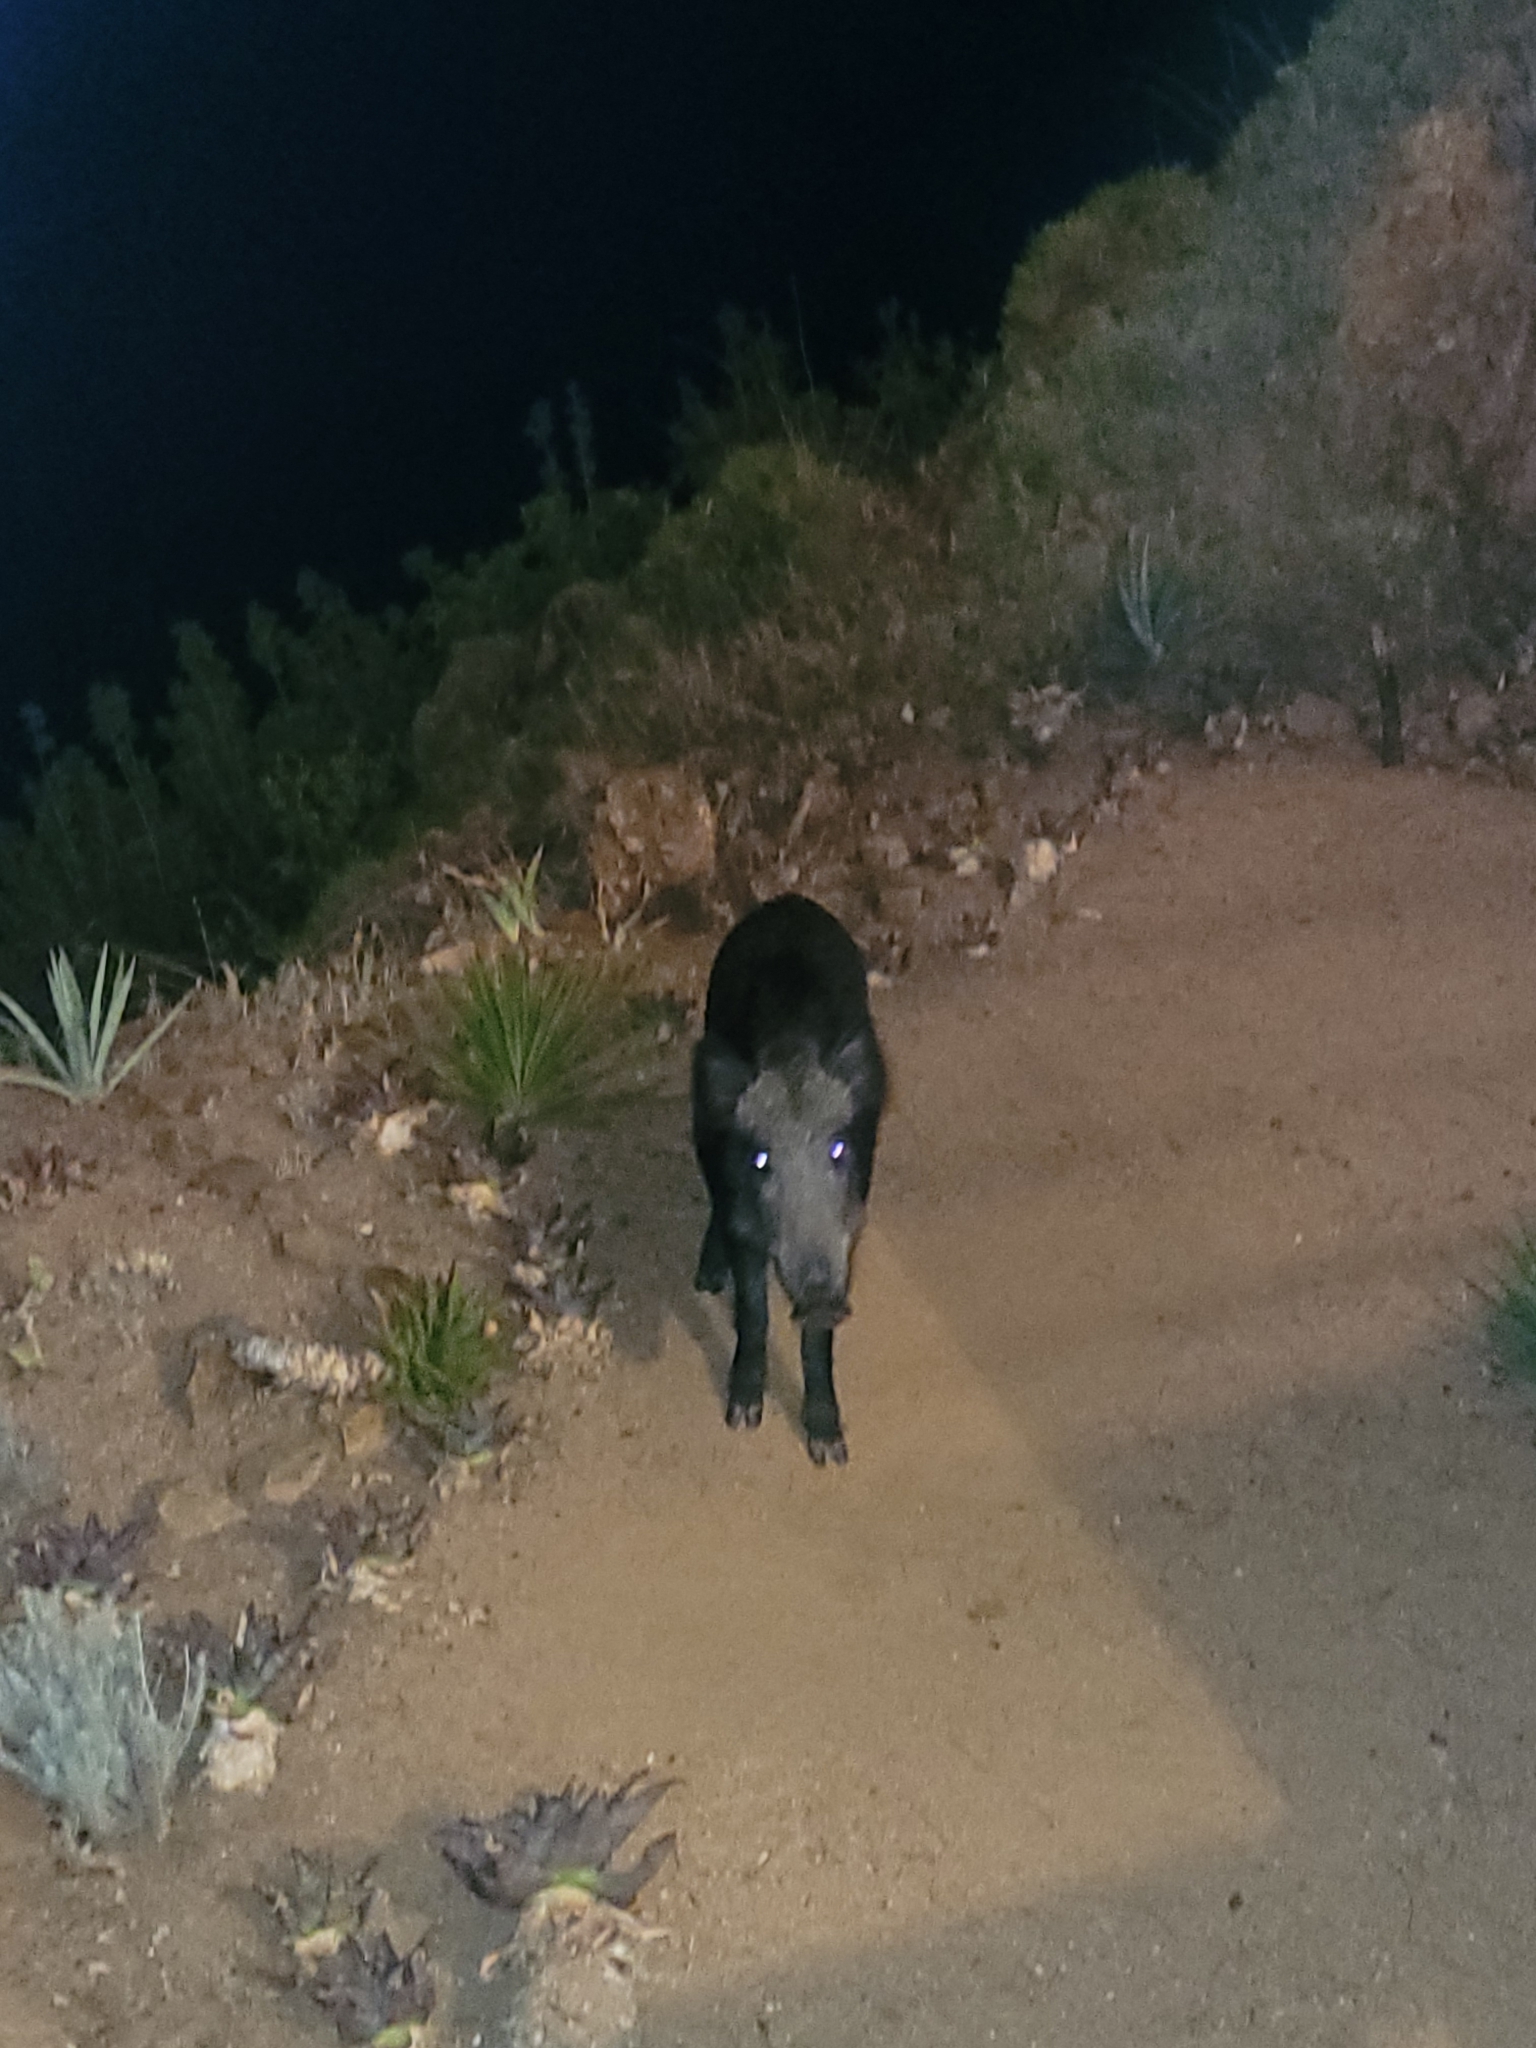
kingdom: Animalia
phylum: Chordata
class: Mammalia
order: Artiodactyla
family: Suidae
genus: Sus
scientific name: Sus scrofa
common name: Wild boar
